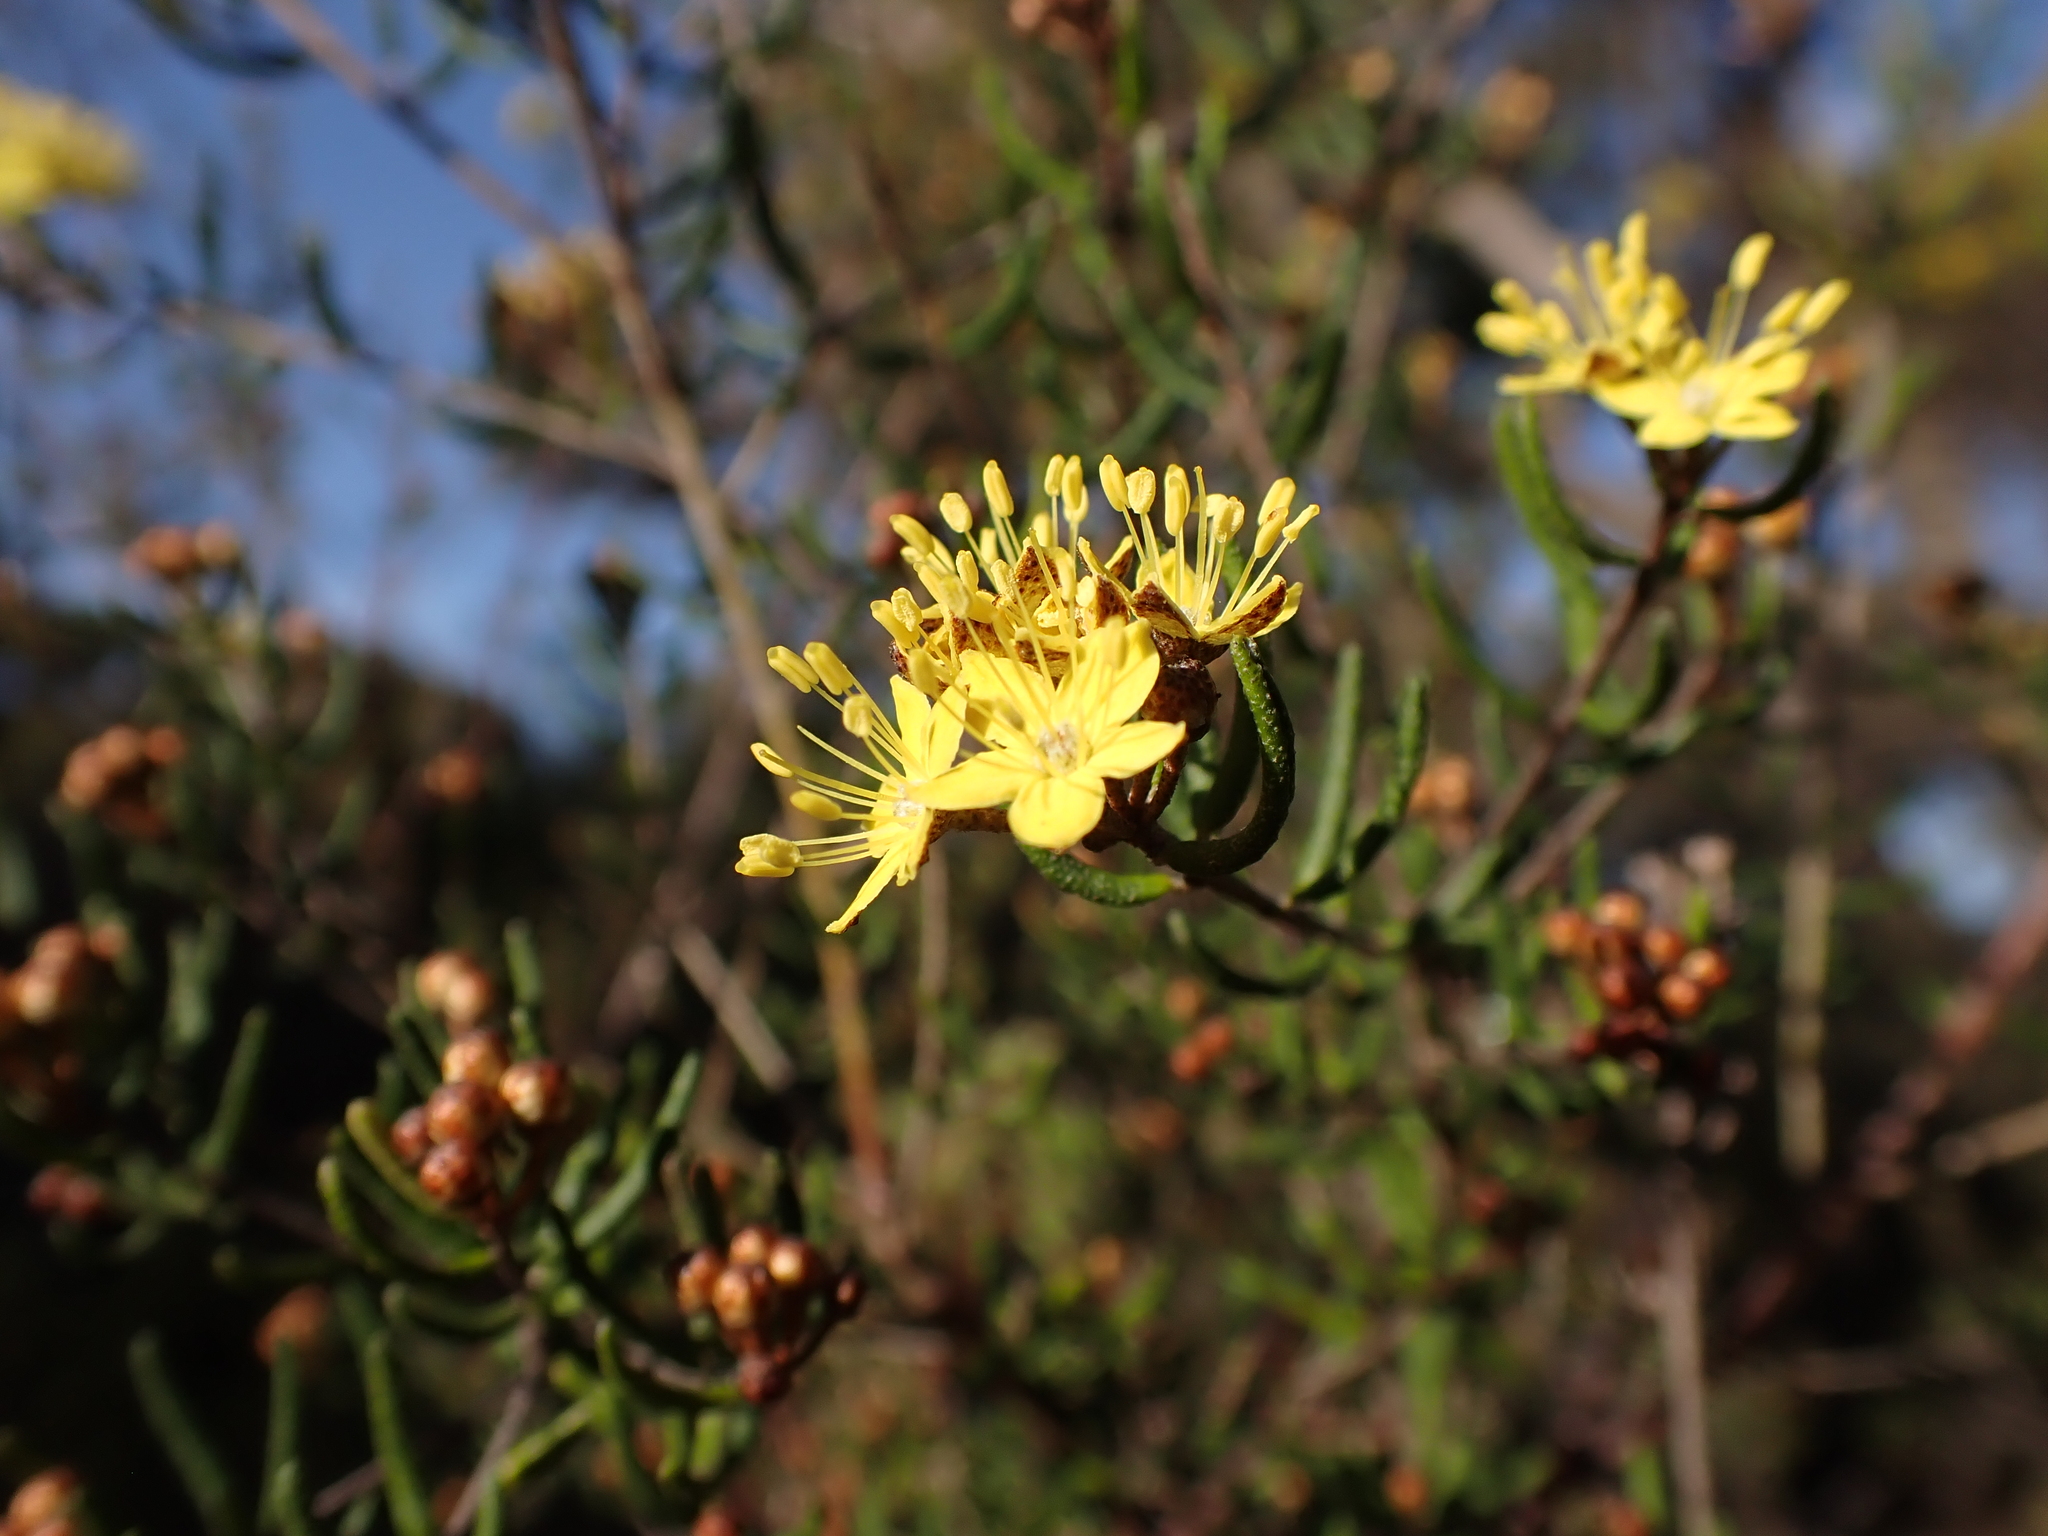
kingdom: Plantae
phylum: Tracheophyta
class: Magnoliopsida
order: Sapindales
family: Rutaceae
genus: Phebalium
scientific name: Phebalium stenophyllum
